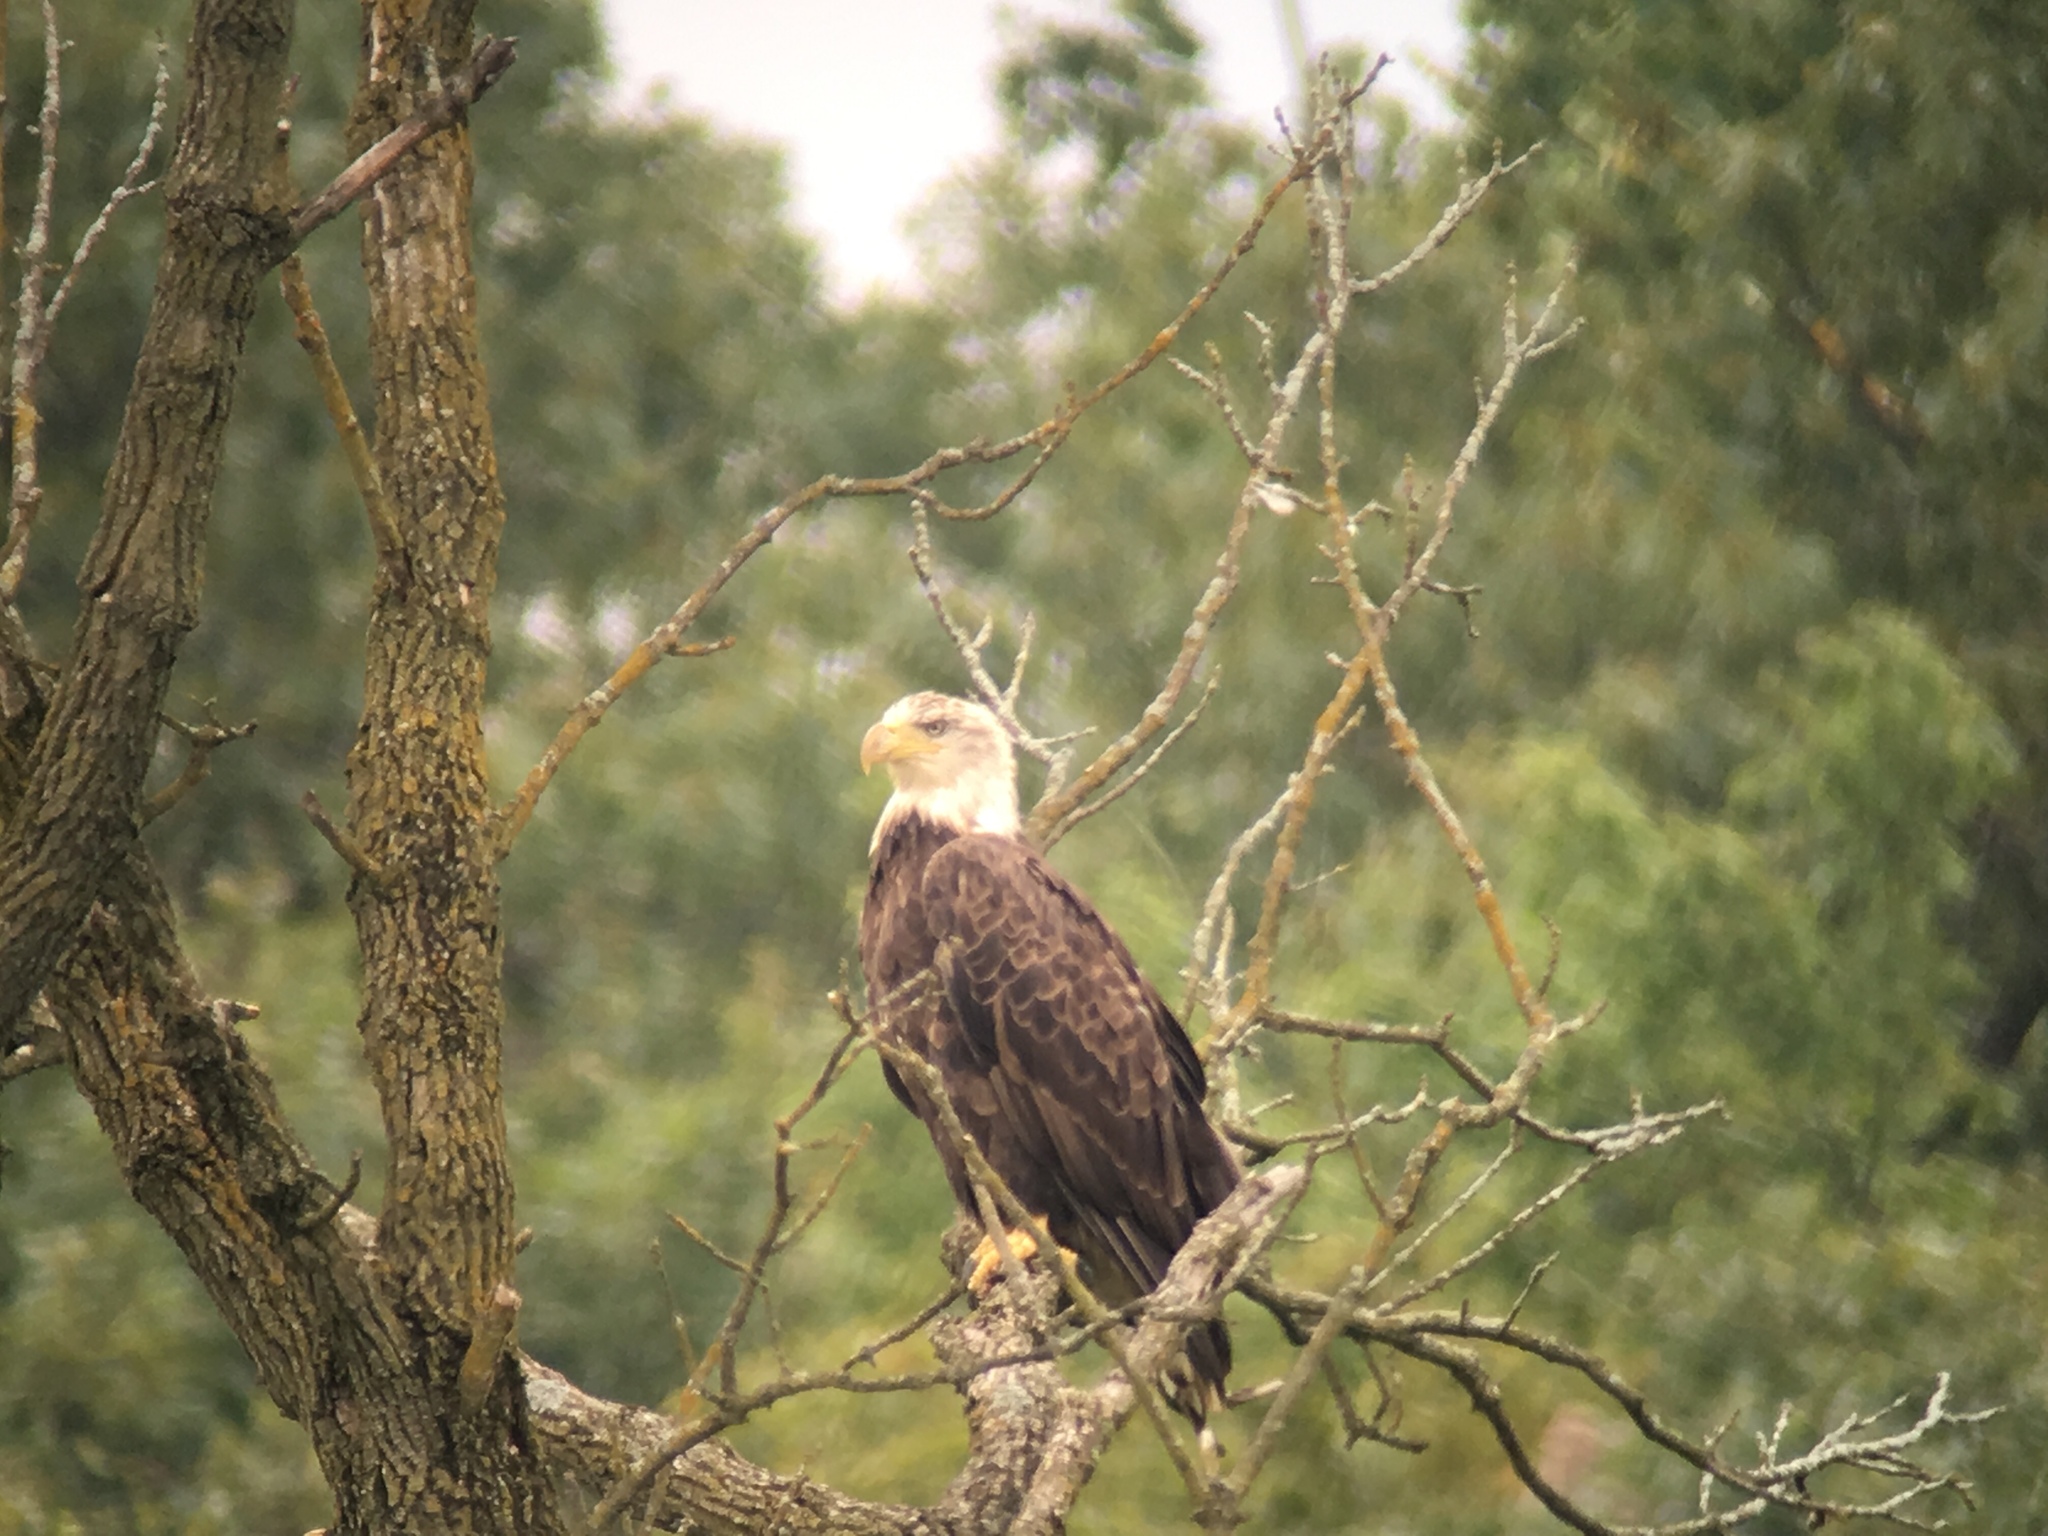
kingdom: Animalia
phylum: Chordata
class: Aves
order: Accipitriformes
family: Accipitridae
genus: Haliaeetus
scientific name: Haliaeetus leucocephalus
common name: Bald eagle
